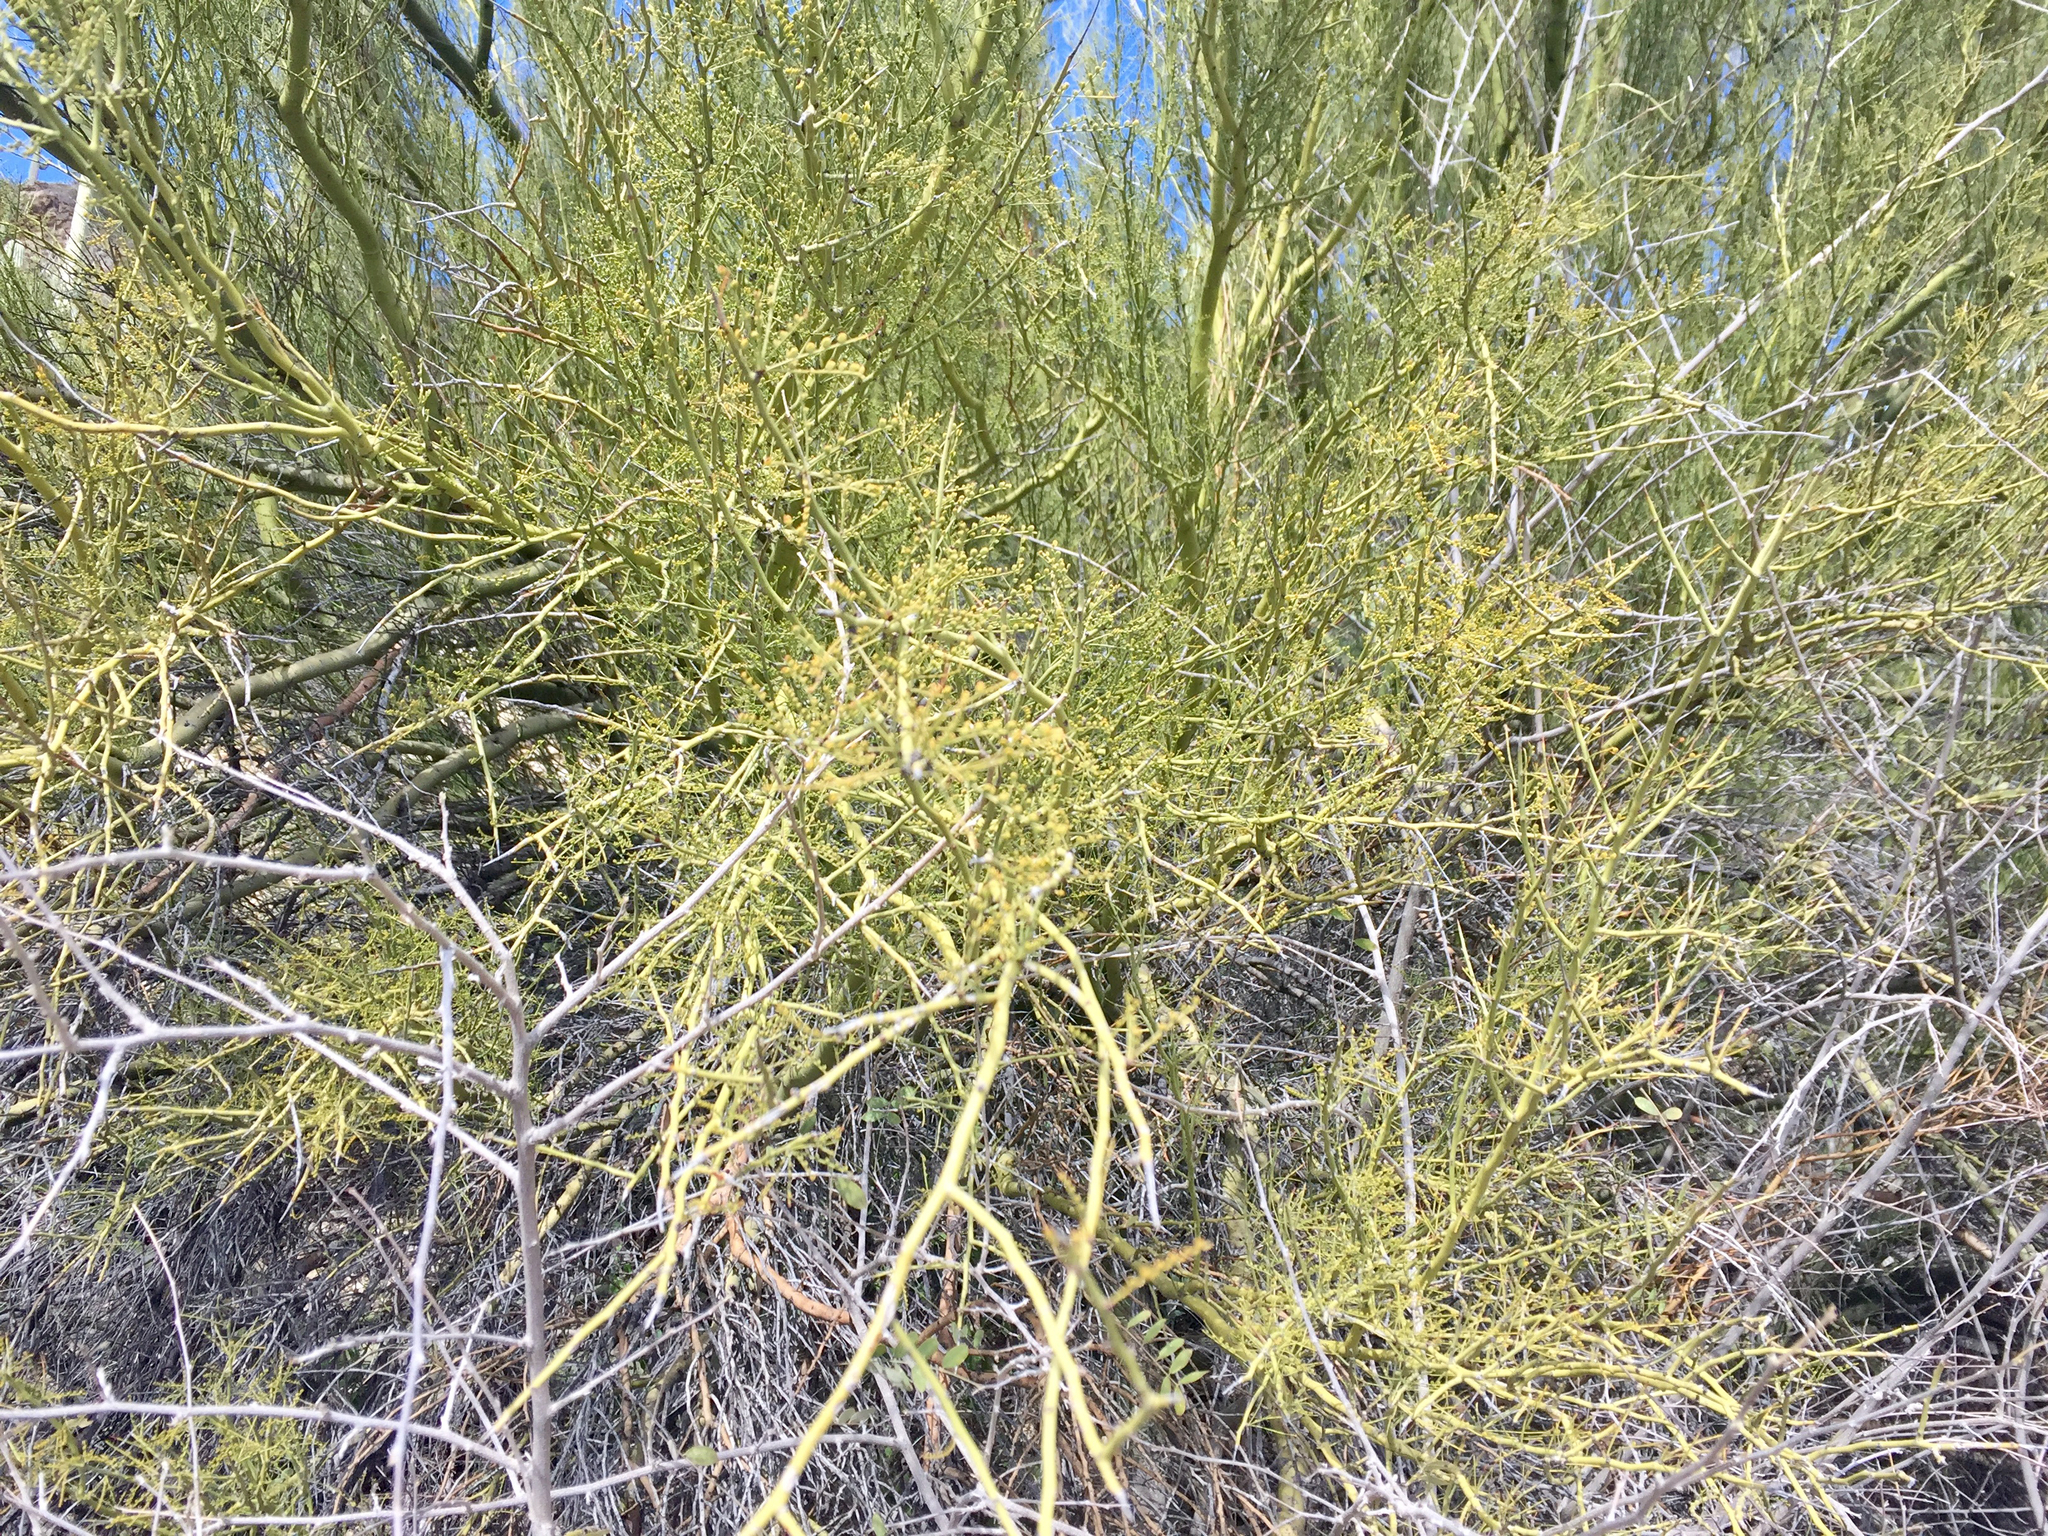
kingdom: Plantae
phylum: Tracheophyta
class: Magnoliopsida
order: Fabales
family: Fabaceae
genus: Parkinsonia
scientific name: Parkinsonia microphylla
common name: Yellow paloverde
